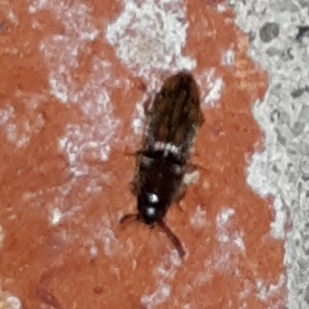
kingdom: Animalia
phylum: Arthropoda
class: Insecta
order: Coleoptera
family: Elateridae
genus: Monocrepidius
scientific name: Monocrepidius bellus
